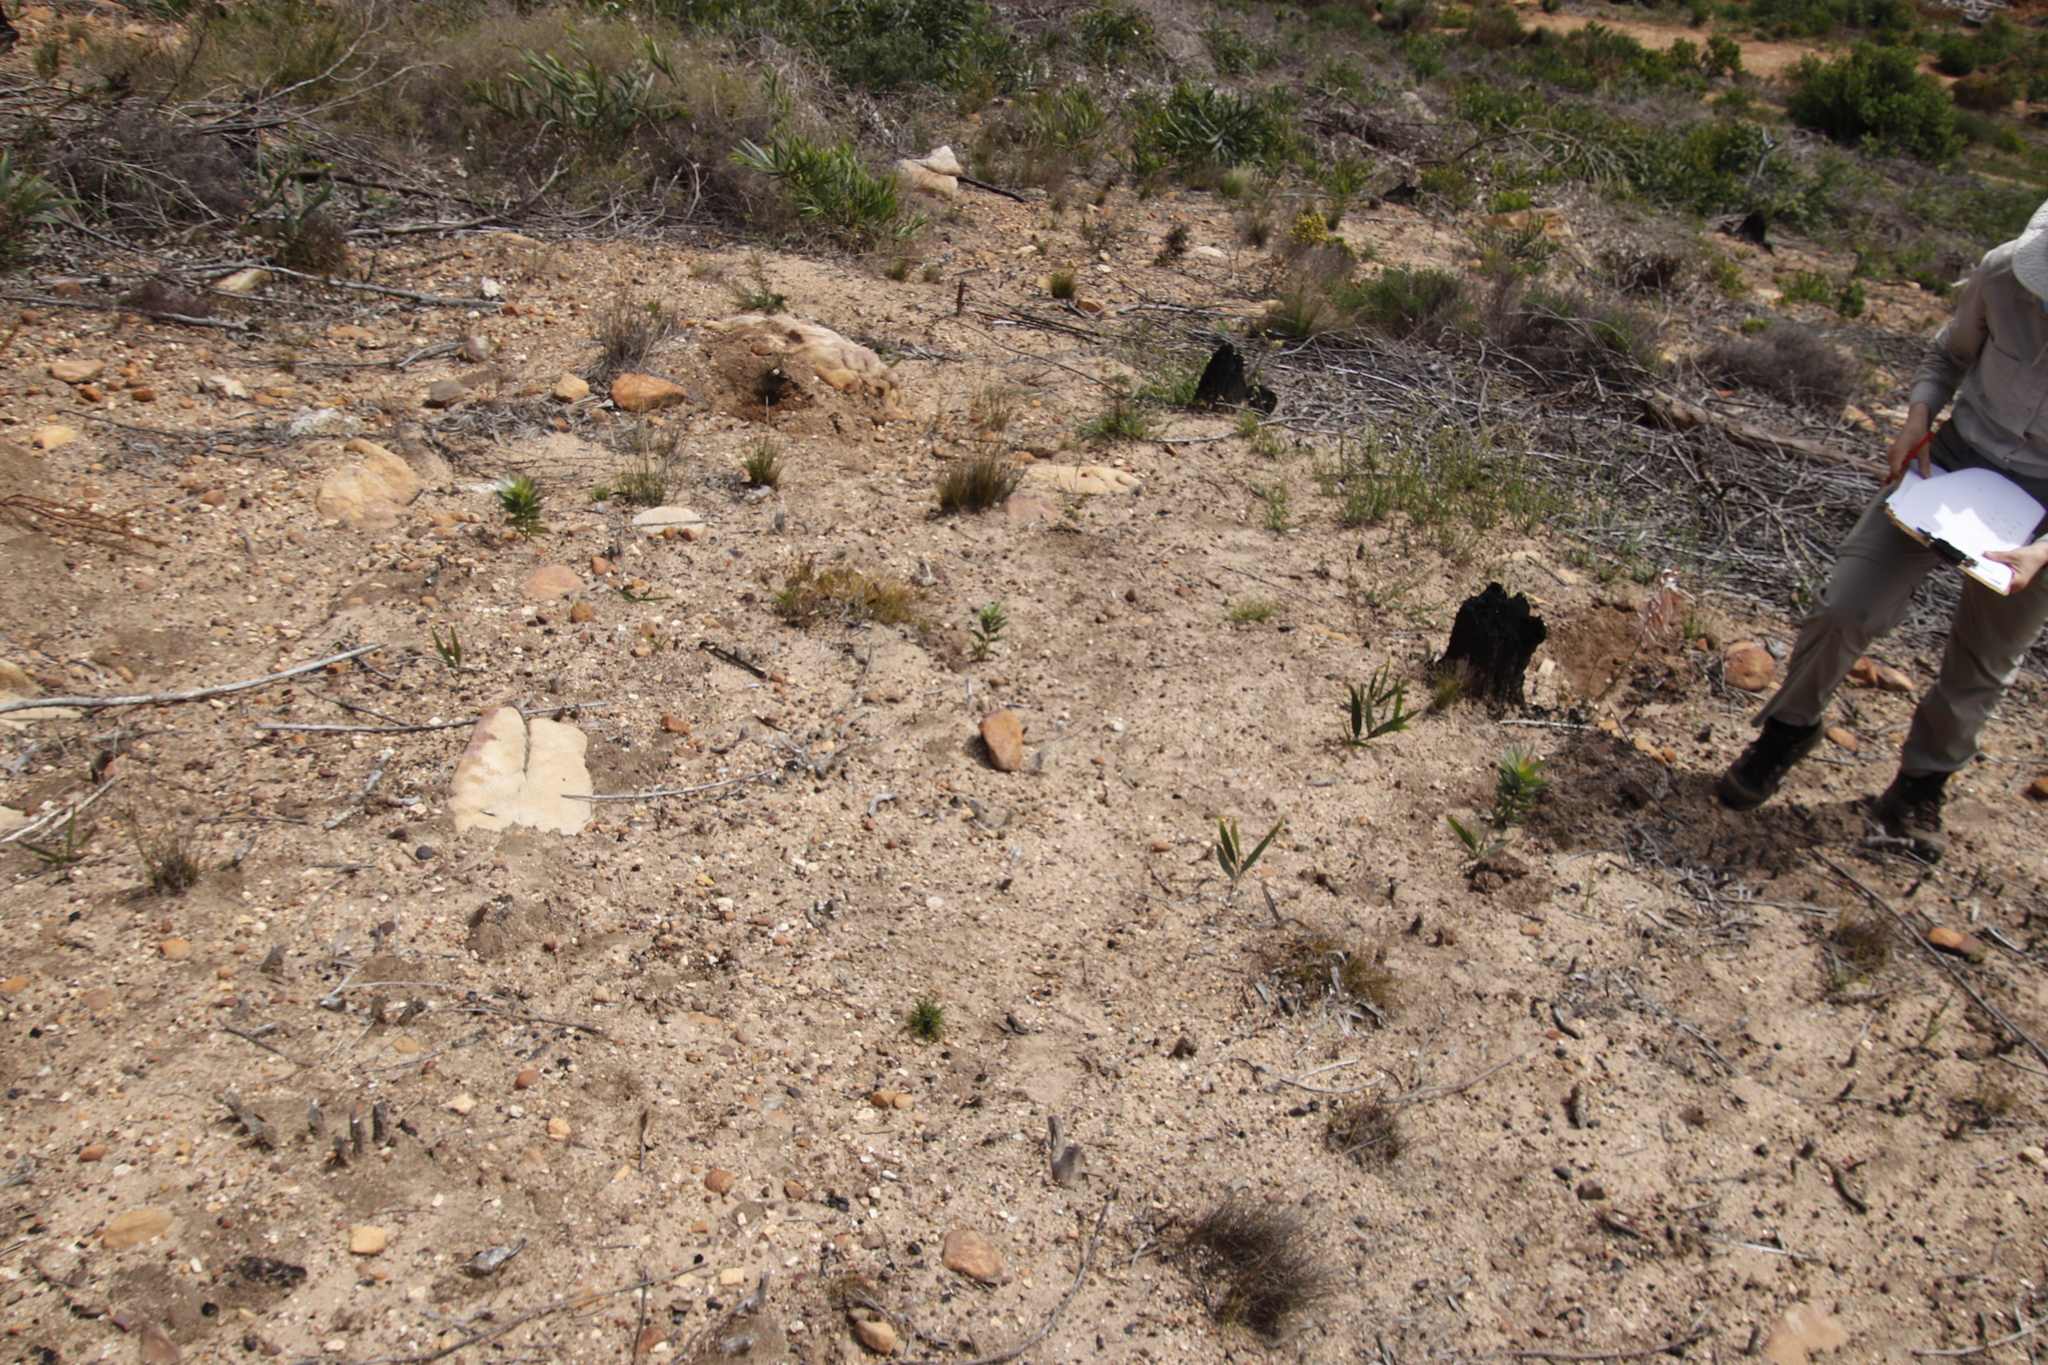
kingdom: Plantae
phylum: Tracheophyta
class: Magnoliopsida
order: Proteales
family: Proteaceae
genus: Leucadendron
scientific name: Leucadendron argenteum
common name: Cape silver tree
